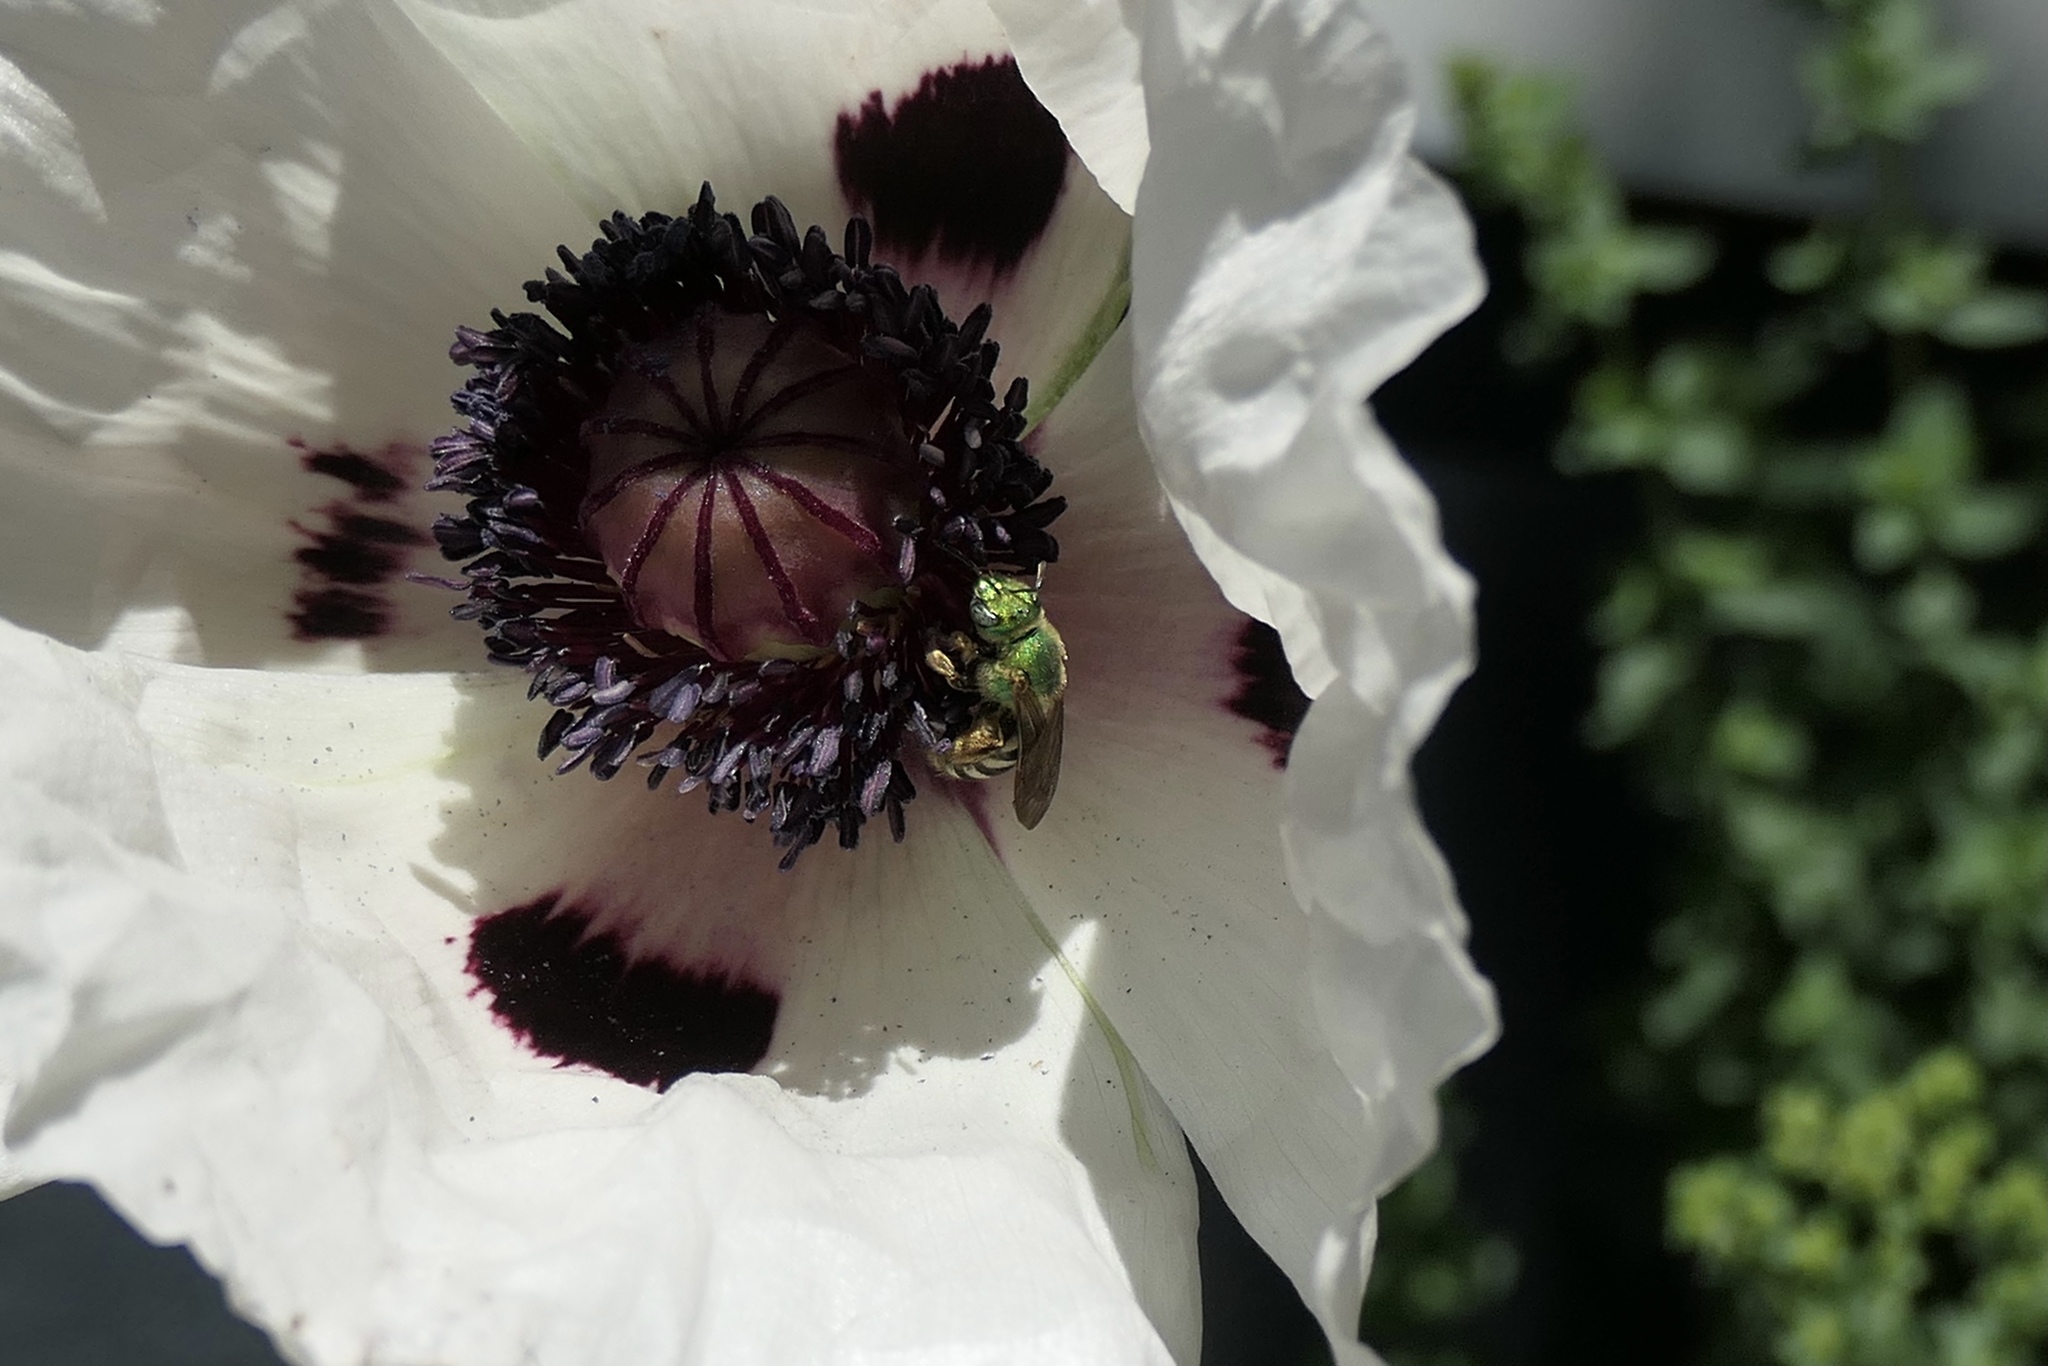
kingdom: Animalia
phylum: Arthropoda
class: Insecta
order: Hymenoptera
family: Halictidae
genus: Agapostemon
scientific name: Agapostemon virescens
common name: Bicolored striped sweat bee
